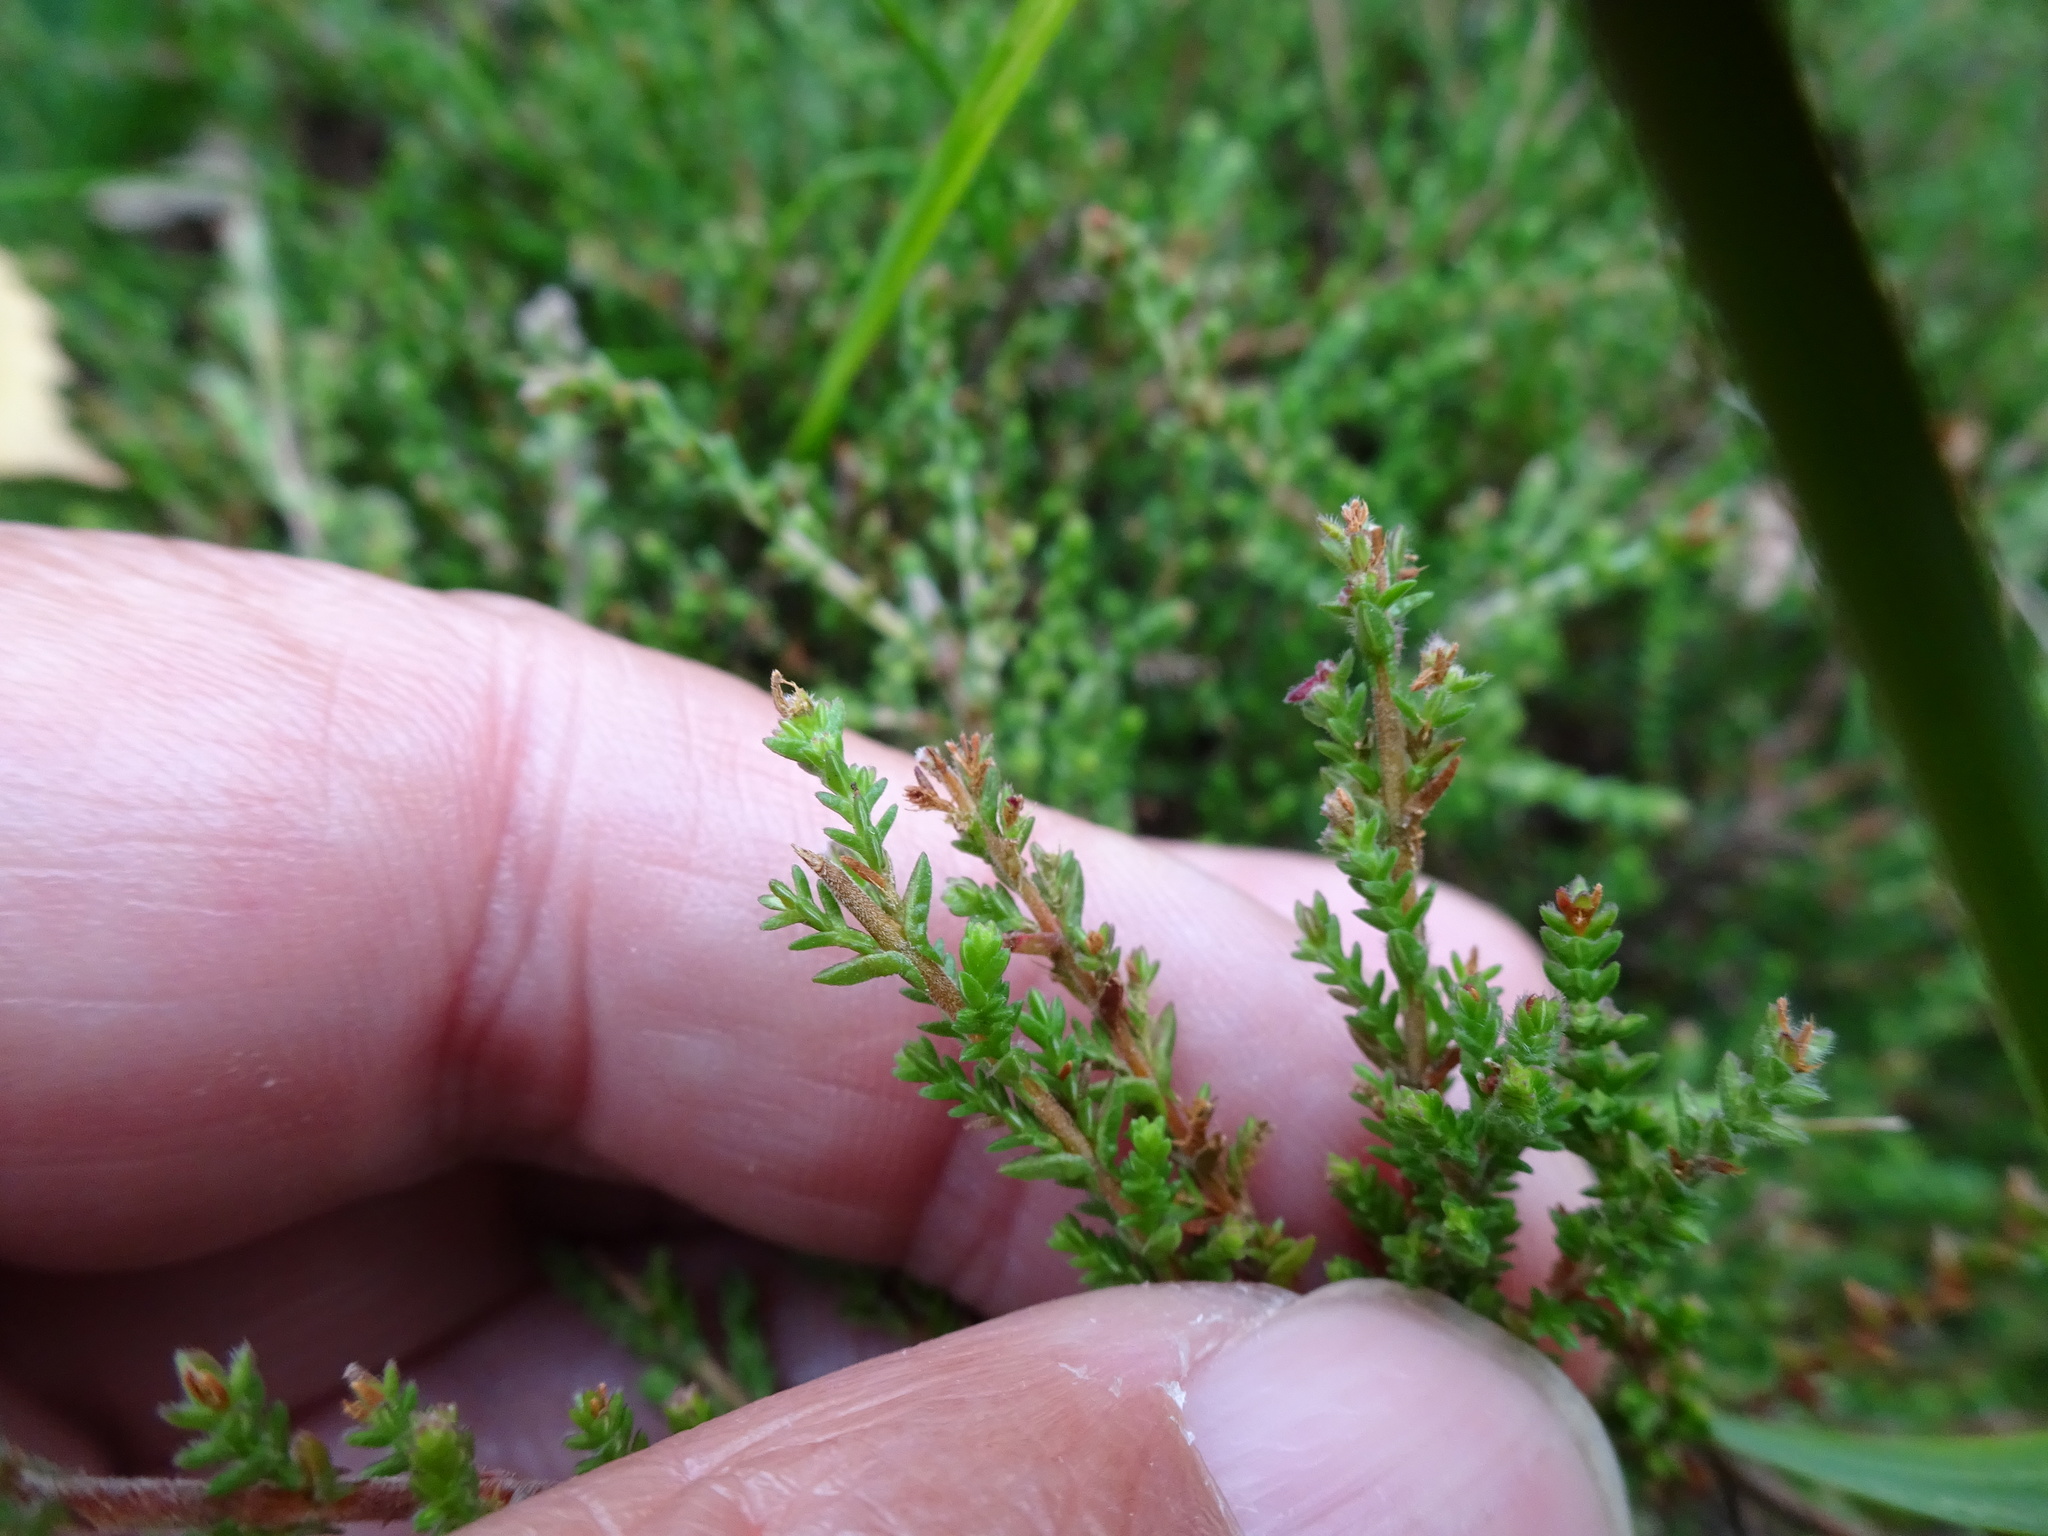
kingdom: Plantae
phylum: Tracheophyta
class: Magnoliopsida
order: Ericales
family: Ericaceae
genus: Calluna
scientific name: Calluna vulgaris
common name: Heather
